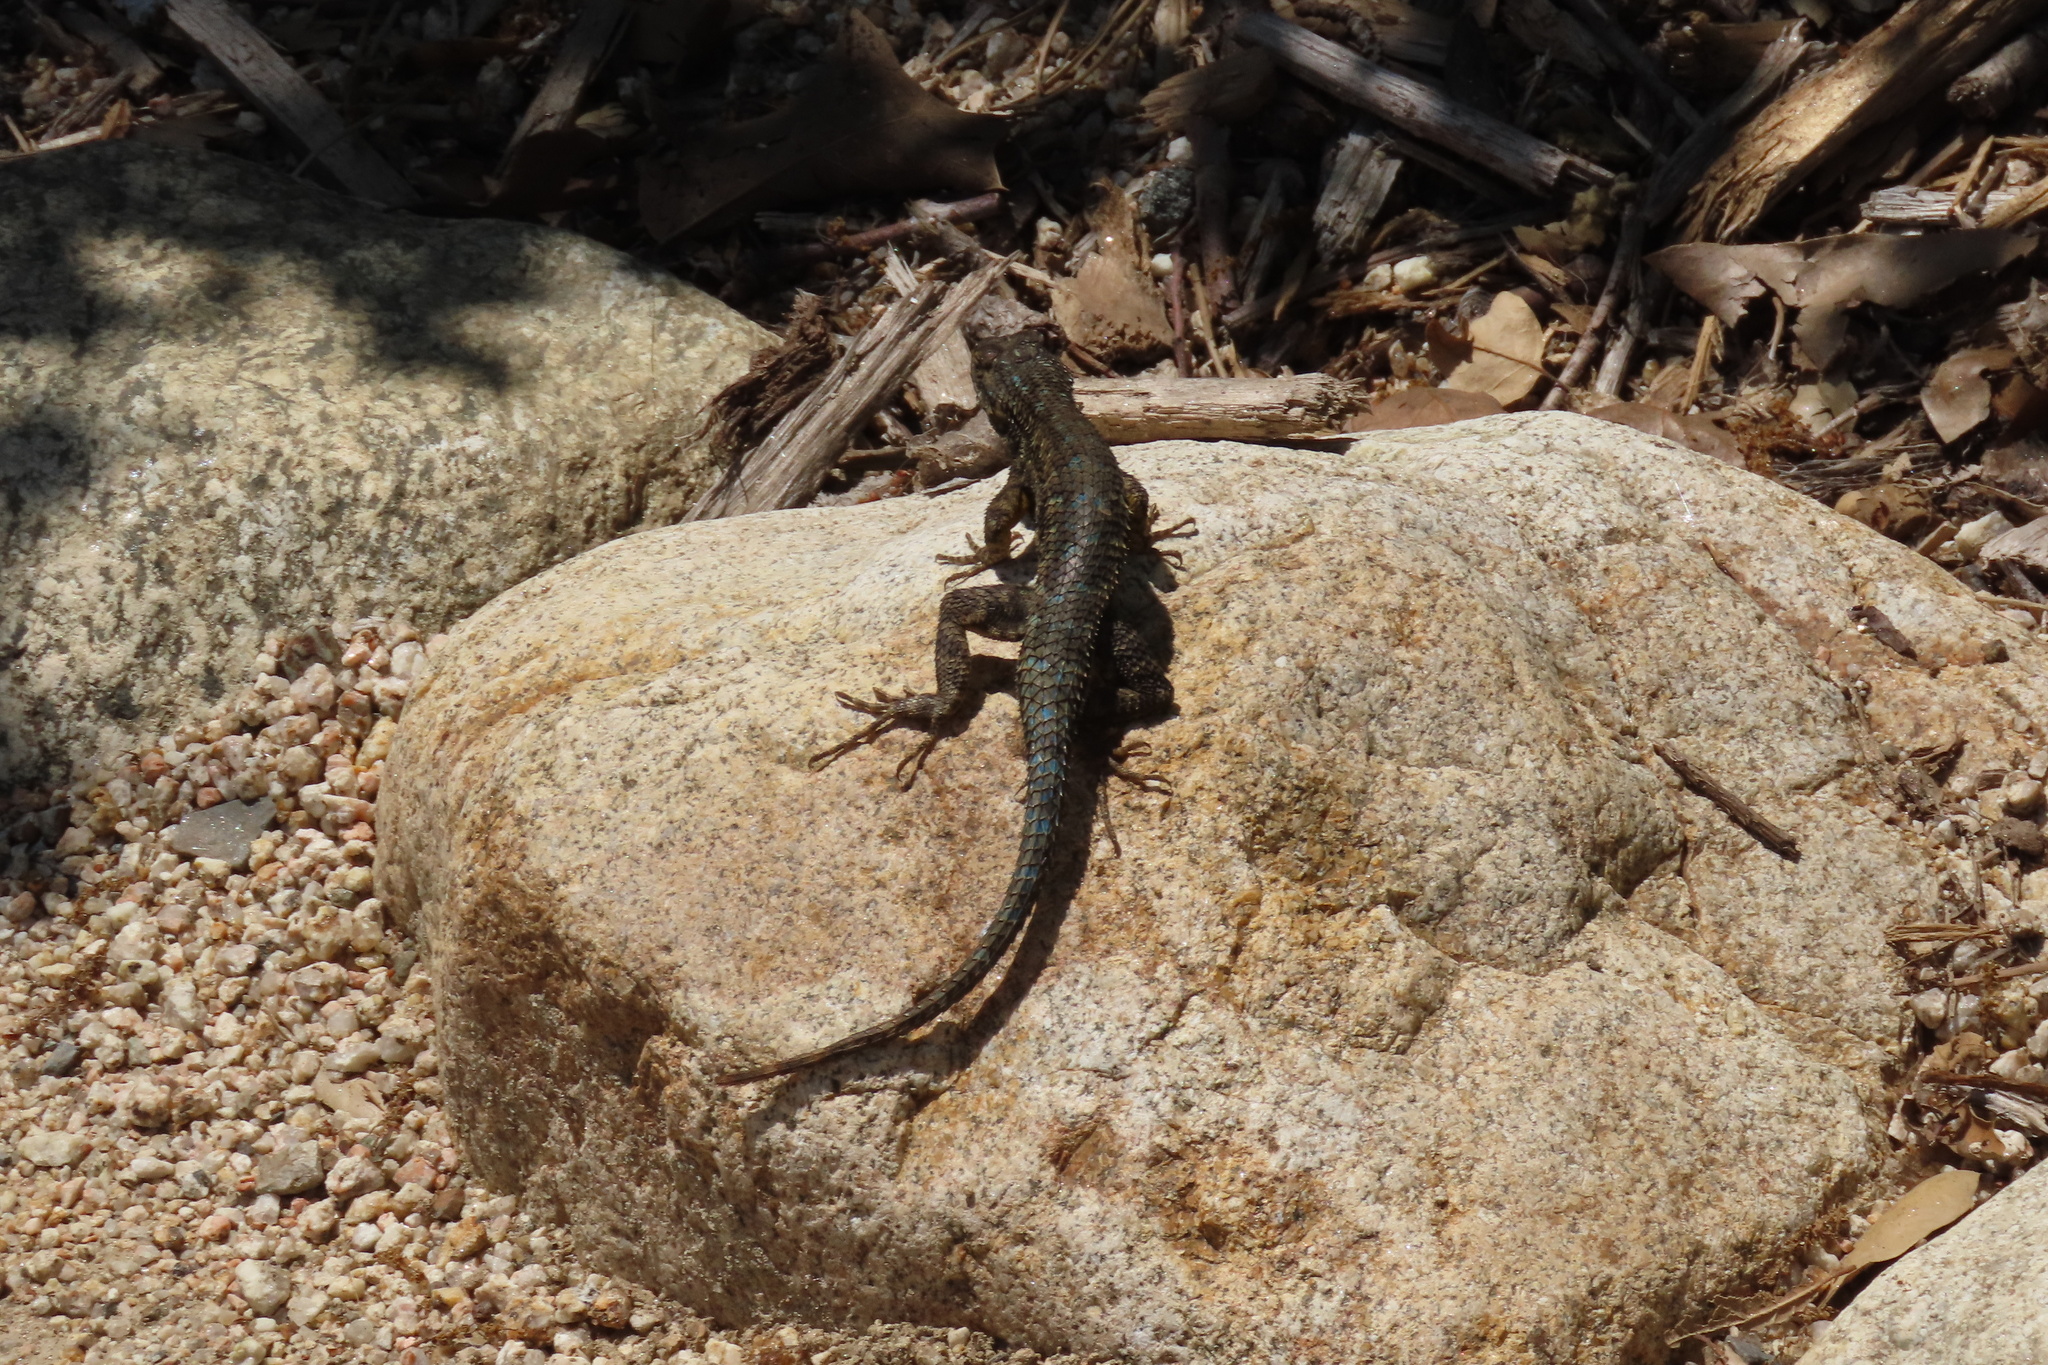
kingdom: Animalia
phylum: Chordata
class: Squamata
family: Phrynosomatidae
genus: Sceloporus
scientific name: Sceloporus occidentalis
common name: Western fence lizard
